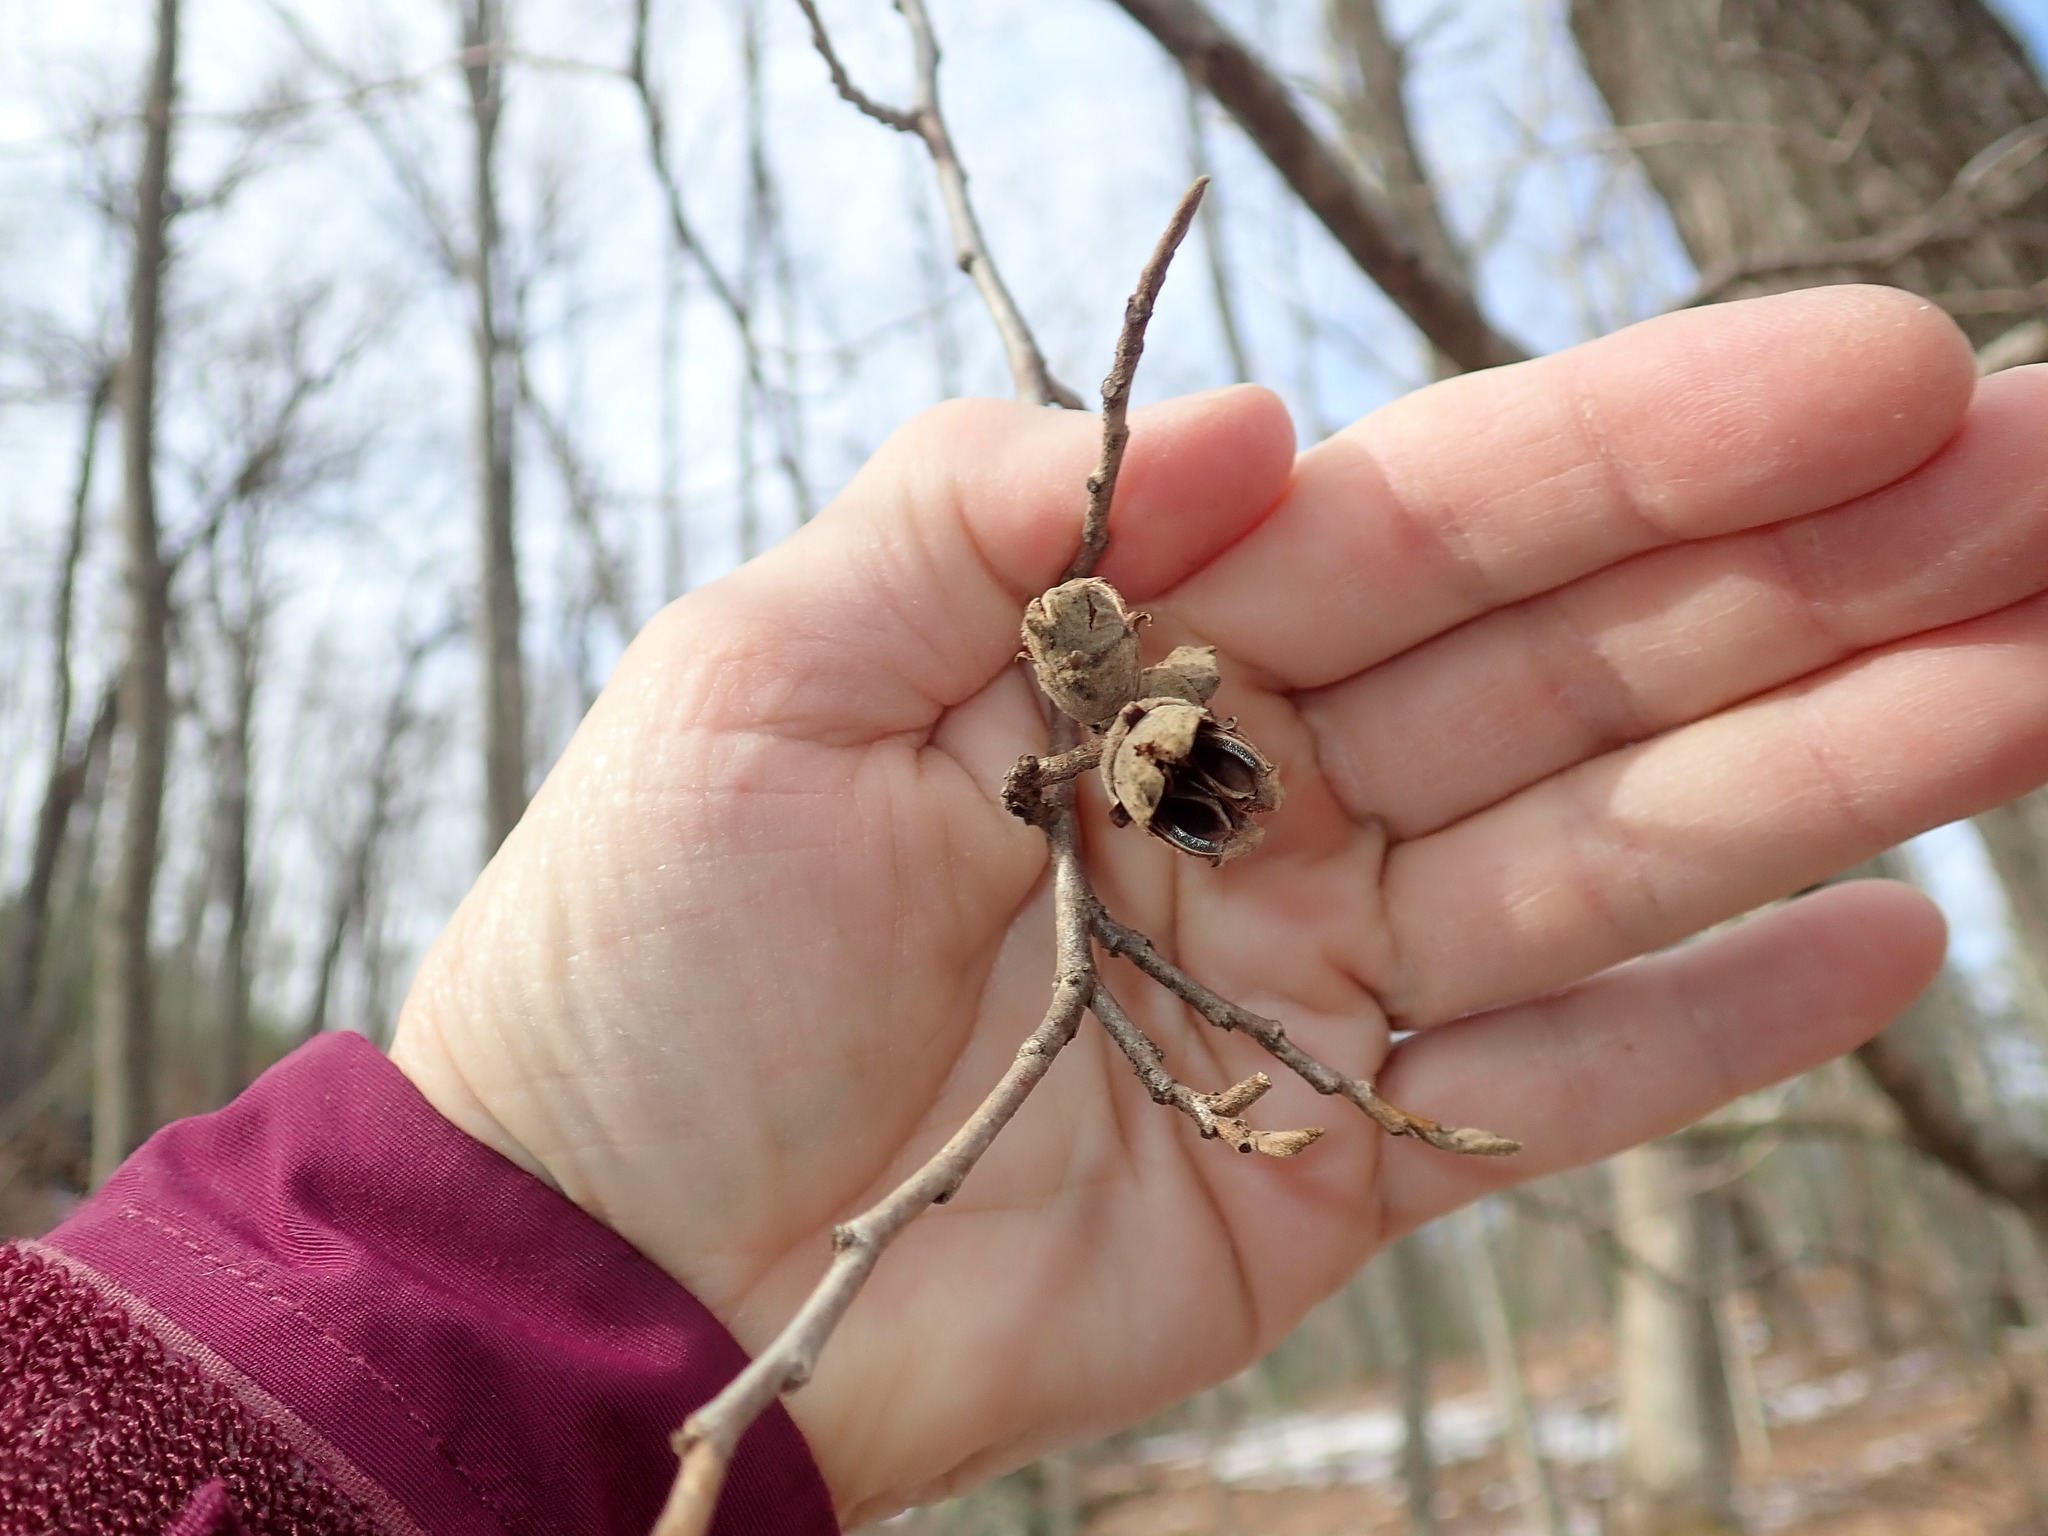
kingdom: Plantae
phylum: Tracheophyta
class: Magnoliopsida
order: Saxifragales
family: Hamamelidaceae
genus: Hamamelis
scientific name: Hamamelis virginiana
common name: Witch-hazel
